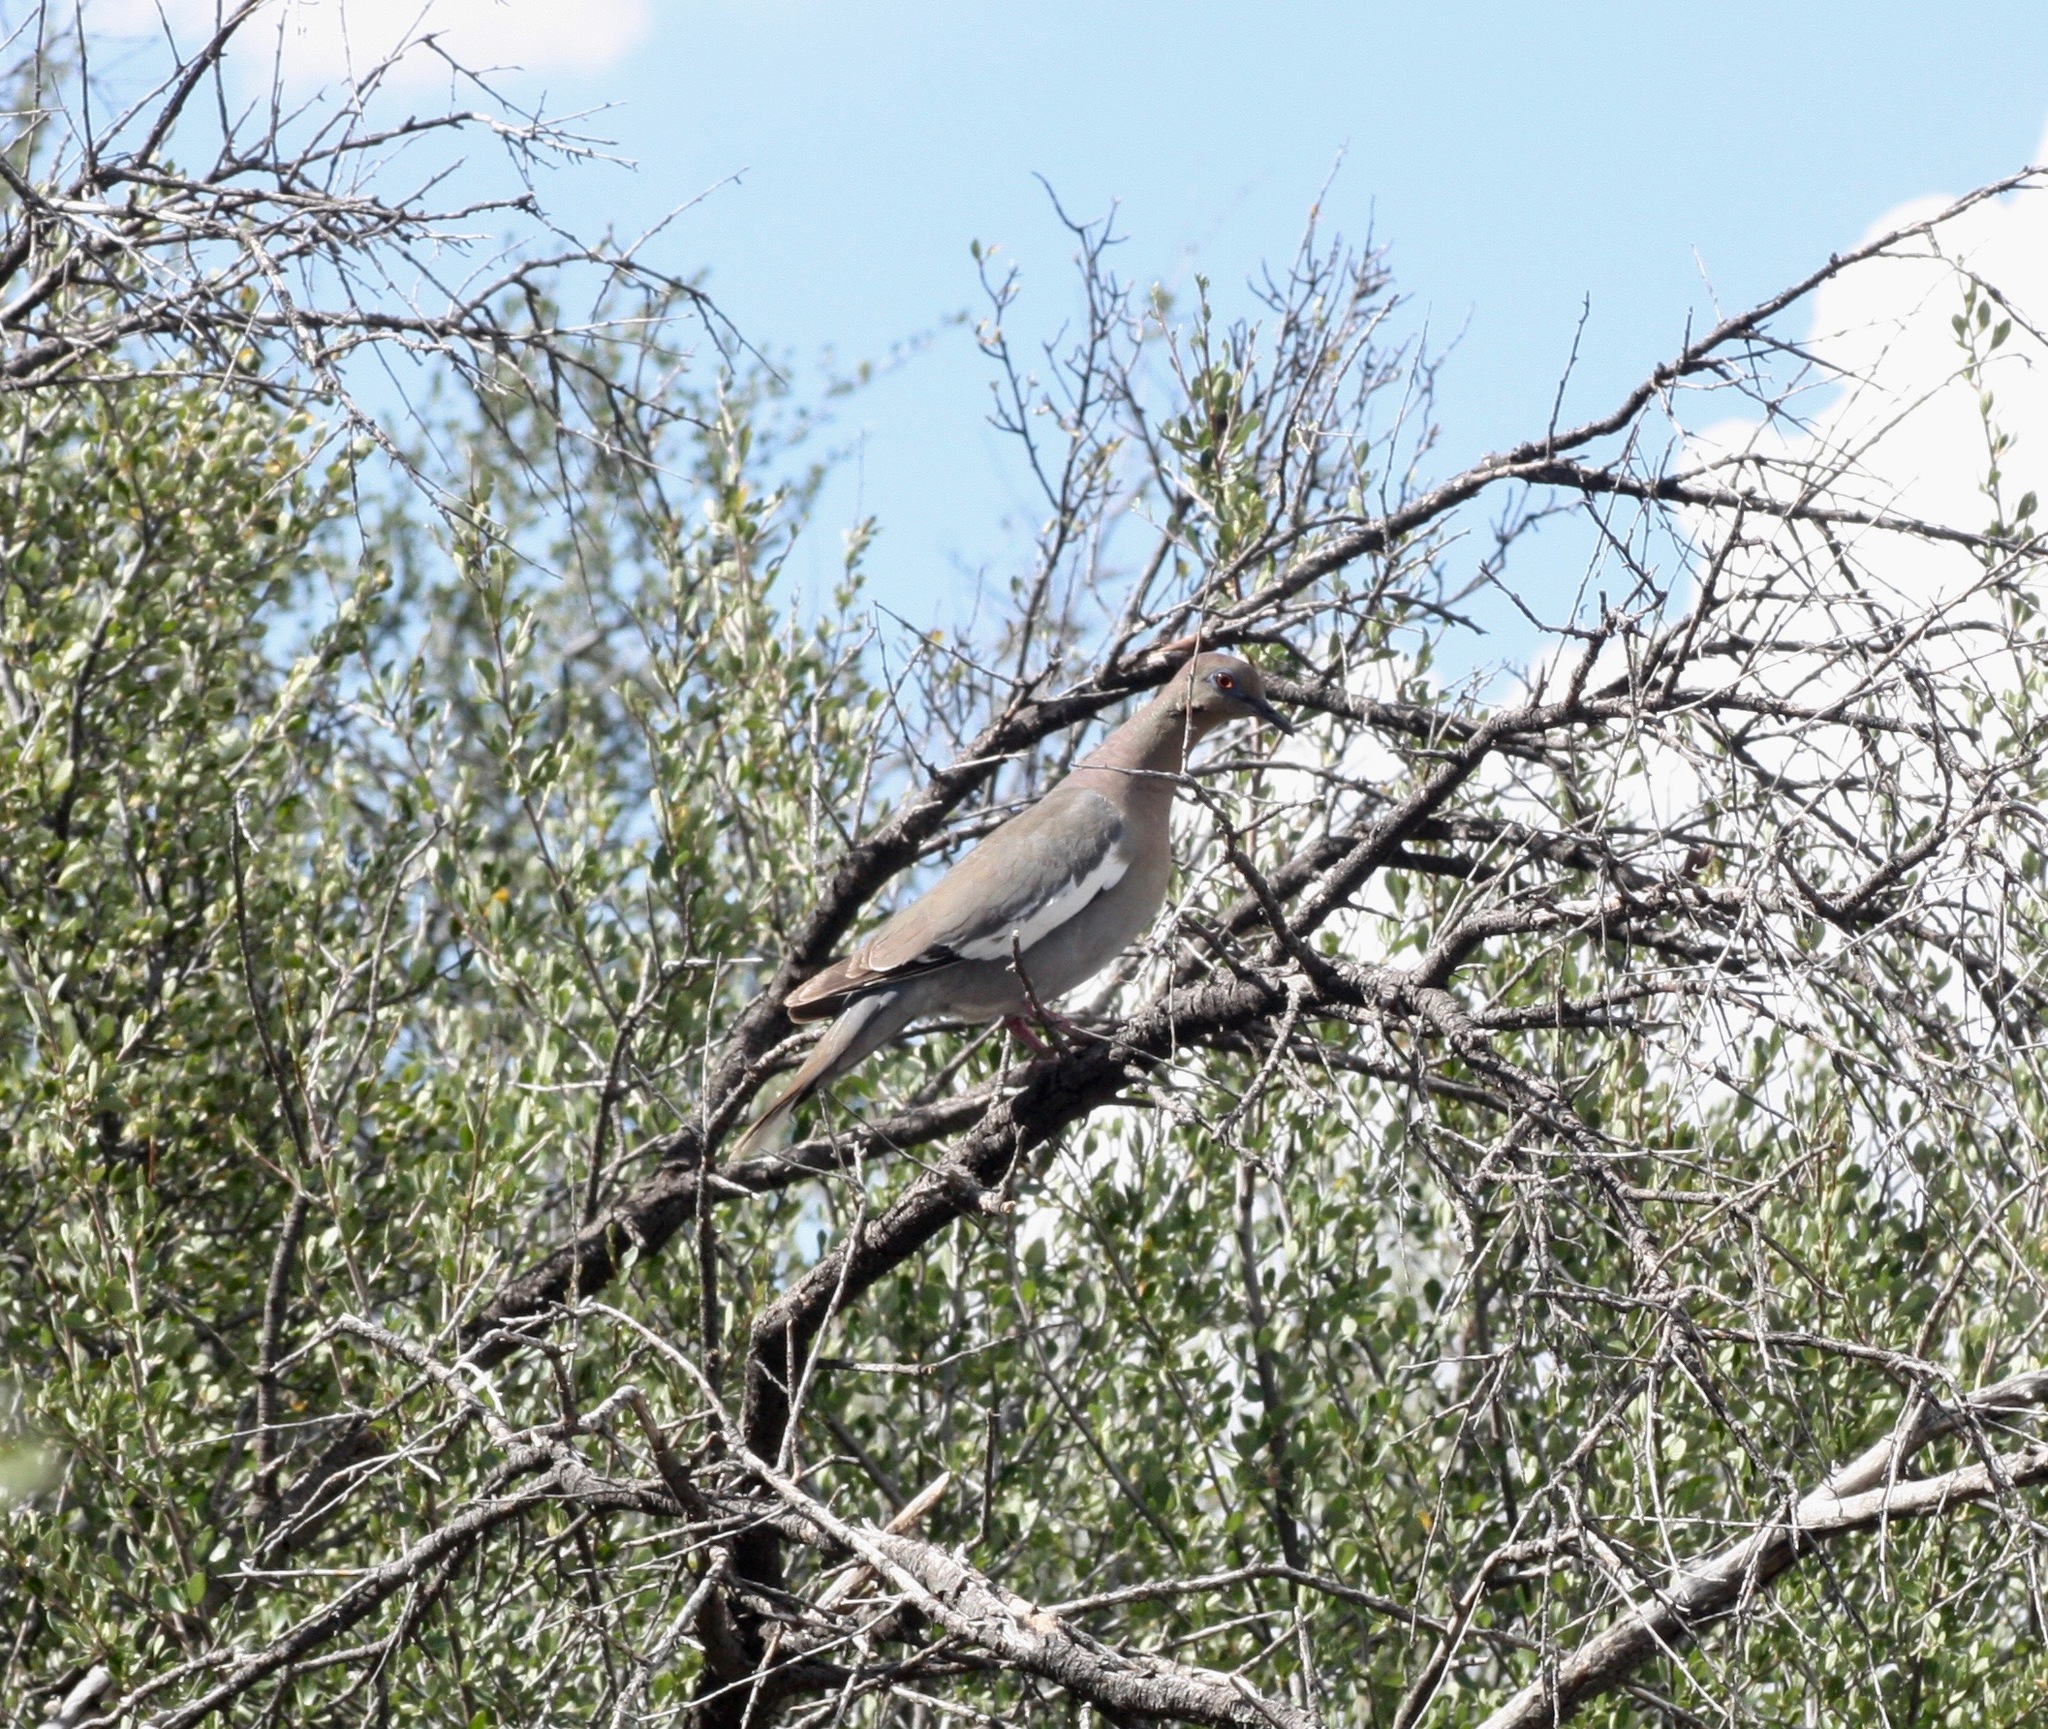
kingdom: Animalia
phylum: Chordata
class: Aves
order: Columbiformes
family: Columbidae
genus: Zenaida
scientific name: Zenaida asiatica
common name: White-winged dove
